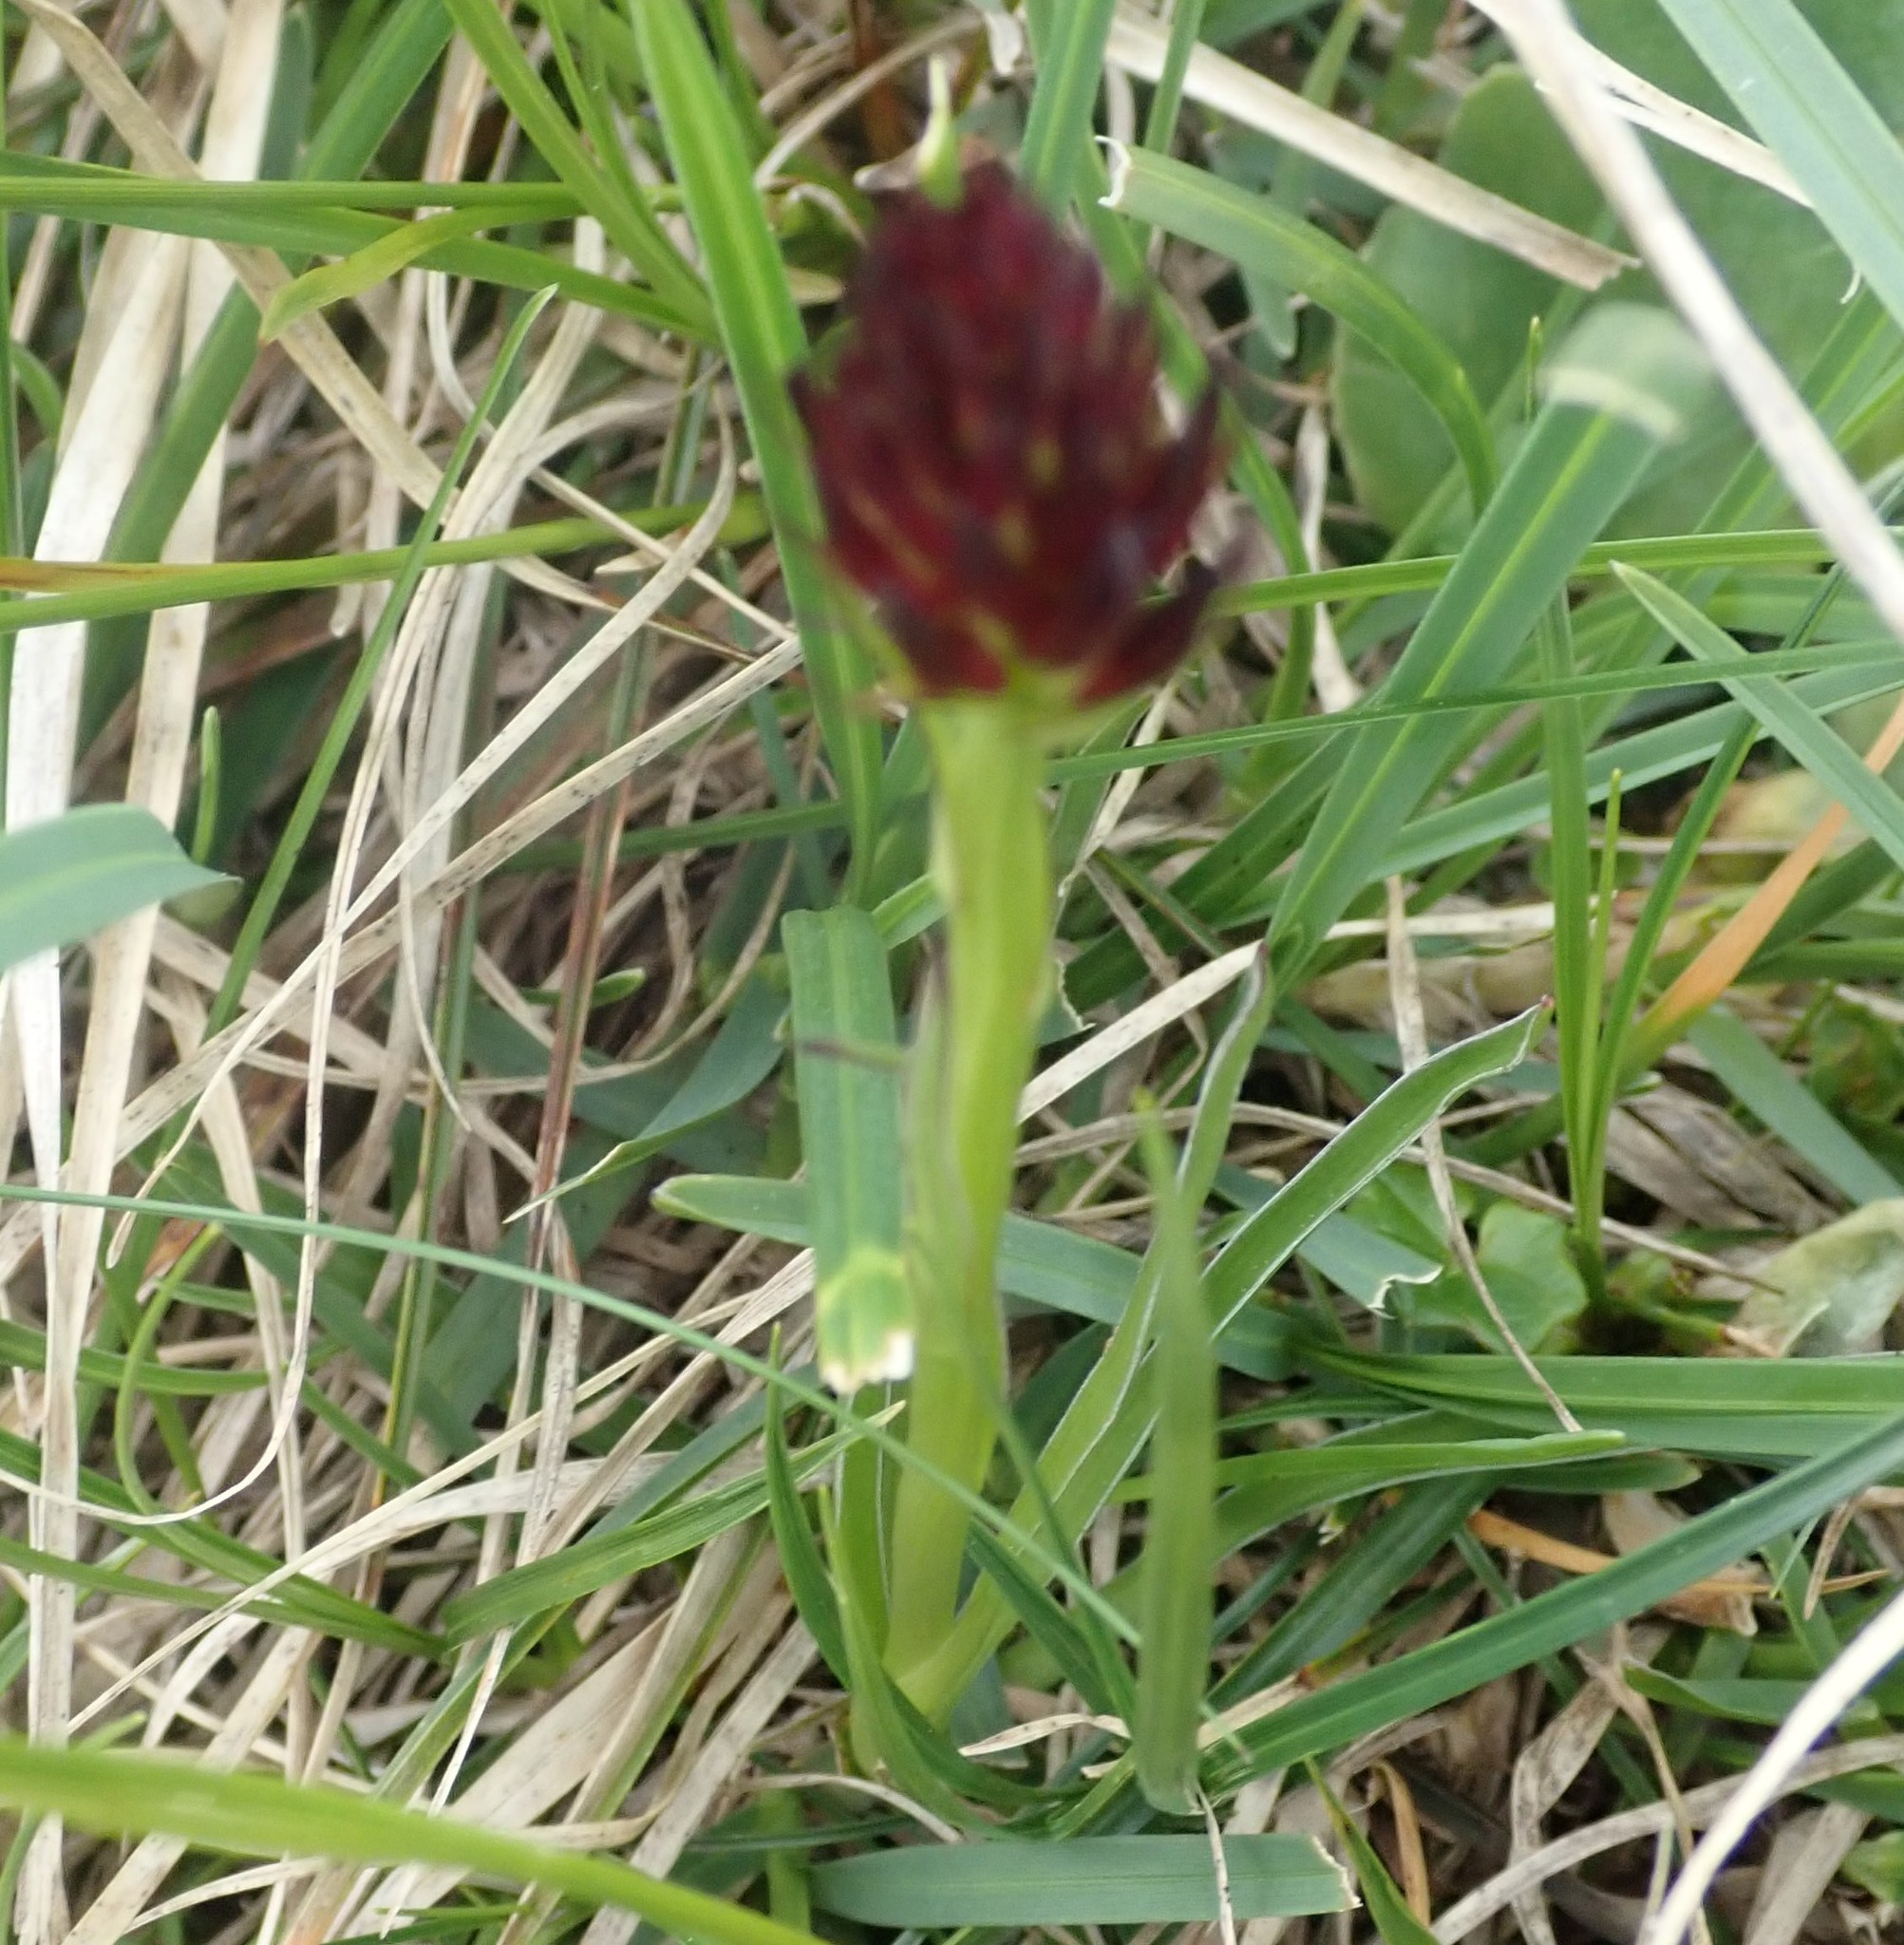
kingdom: Plantae
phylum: Tracheophyta
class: Liliopsida
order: Asparagales
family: Orchidaceae
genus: Gymnadenia
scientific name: Gymnadenia rhellicani
